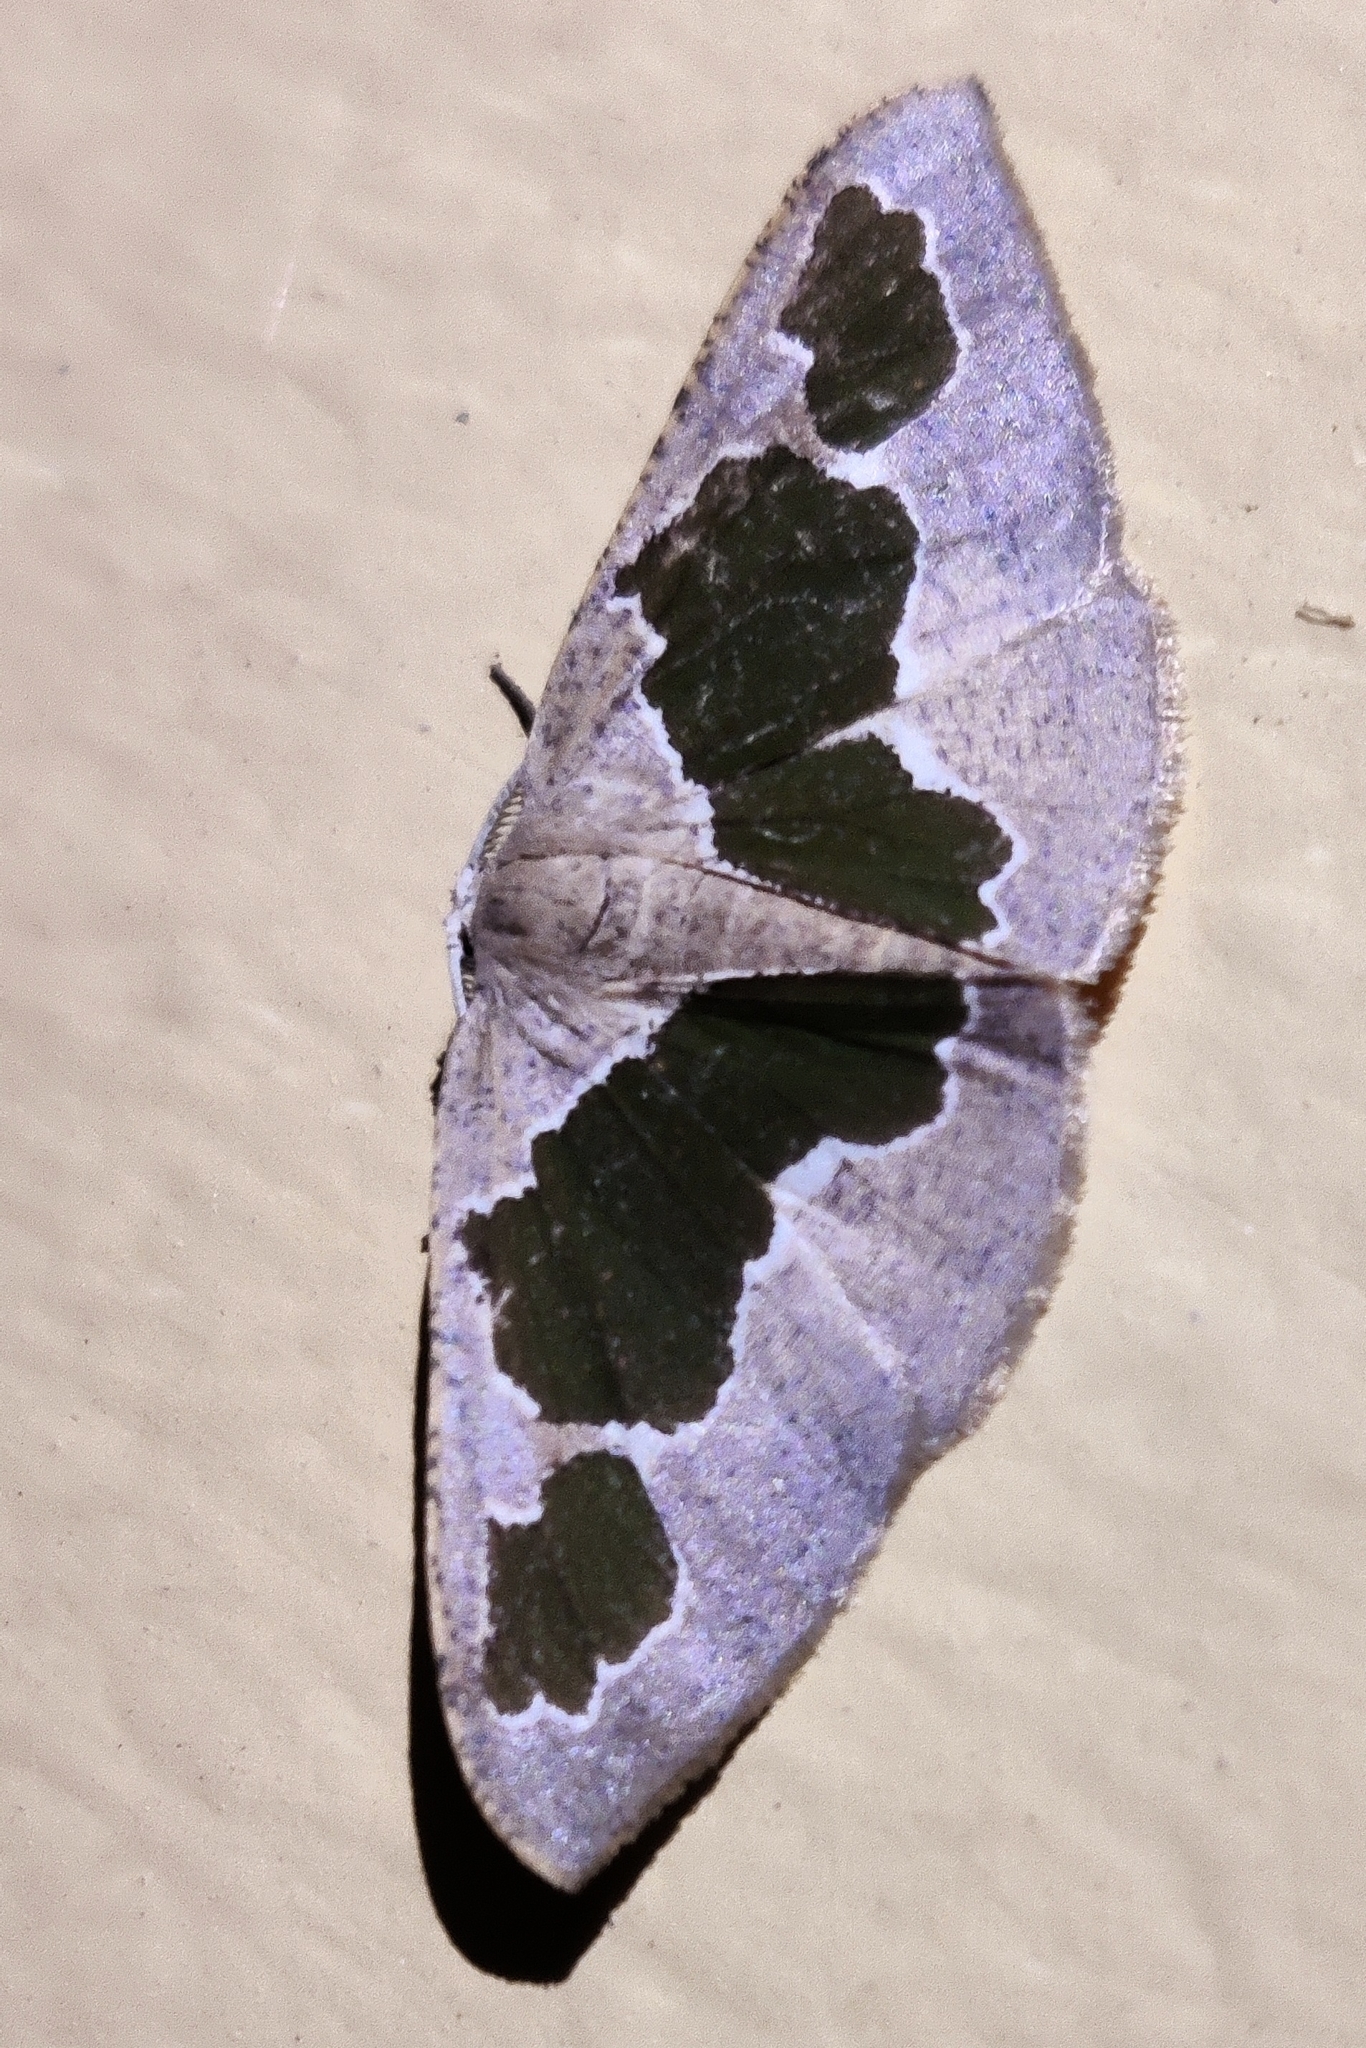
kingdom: Animalia
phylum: Arthropoda
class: Insecta
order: Lepidoptera
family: Geometridae
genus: Celenna
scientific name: Celenna festivaria
